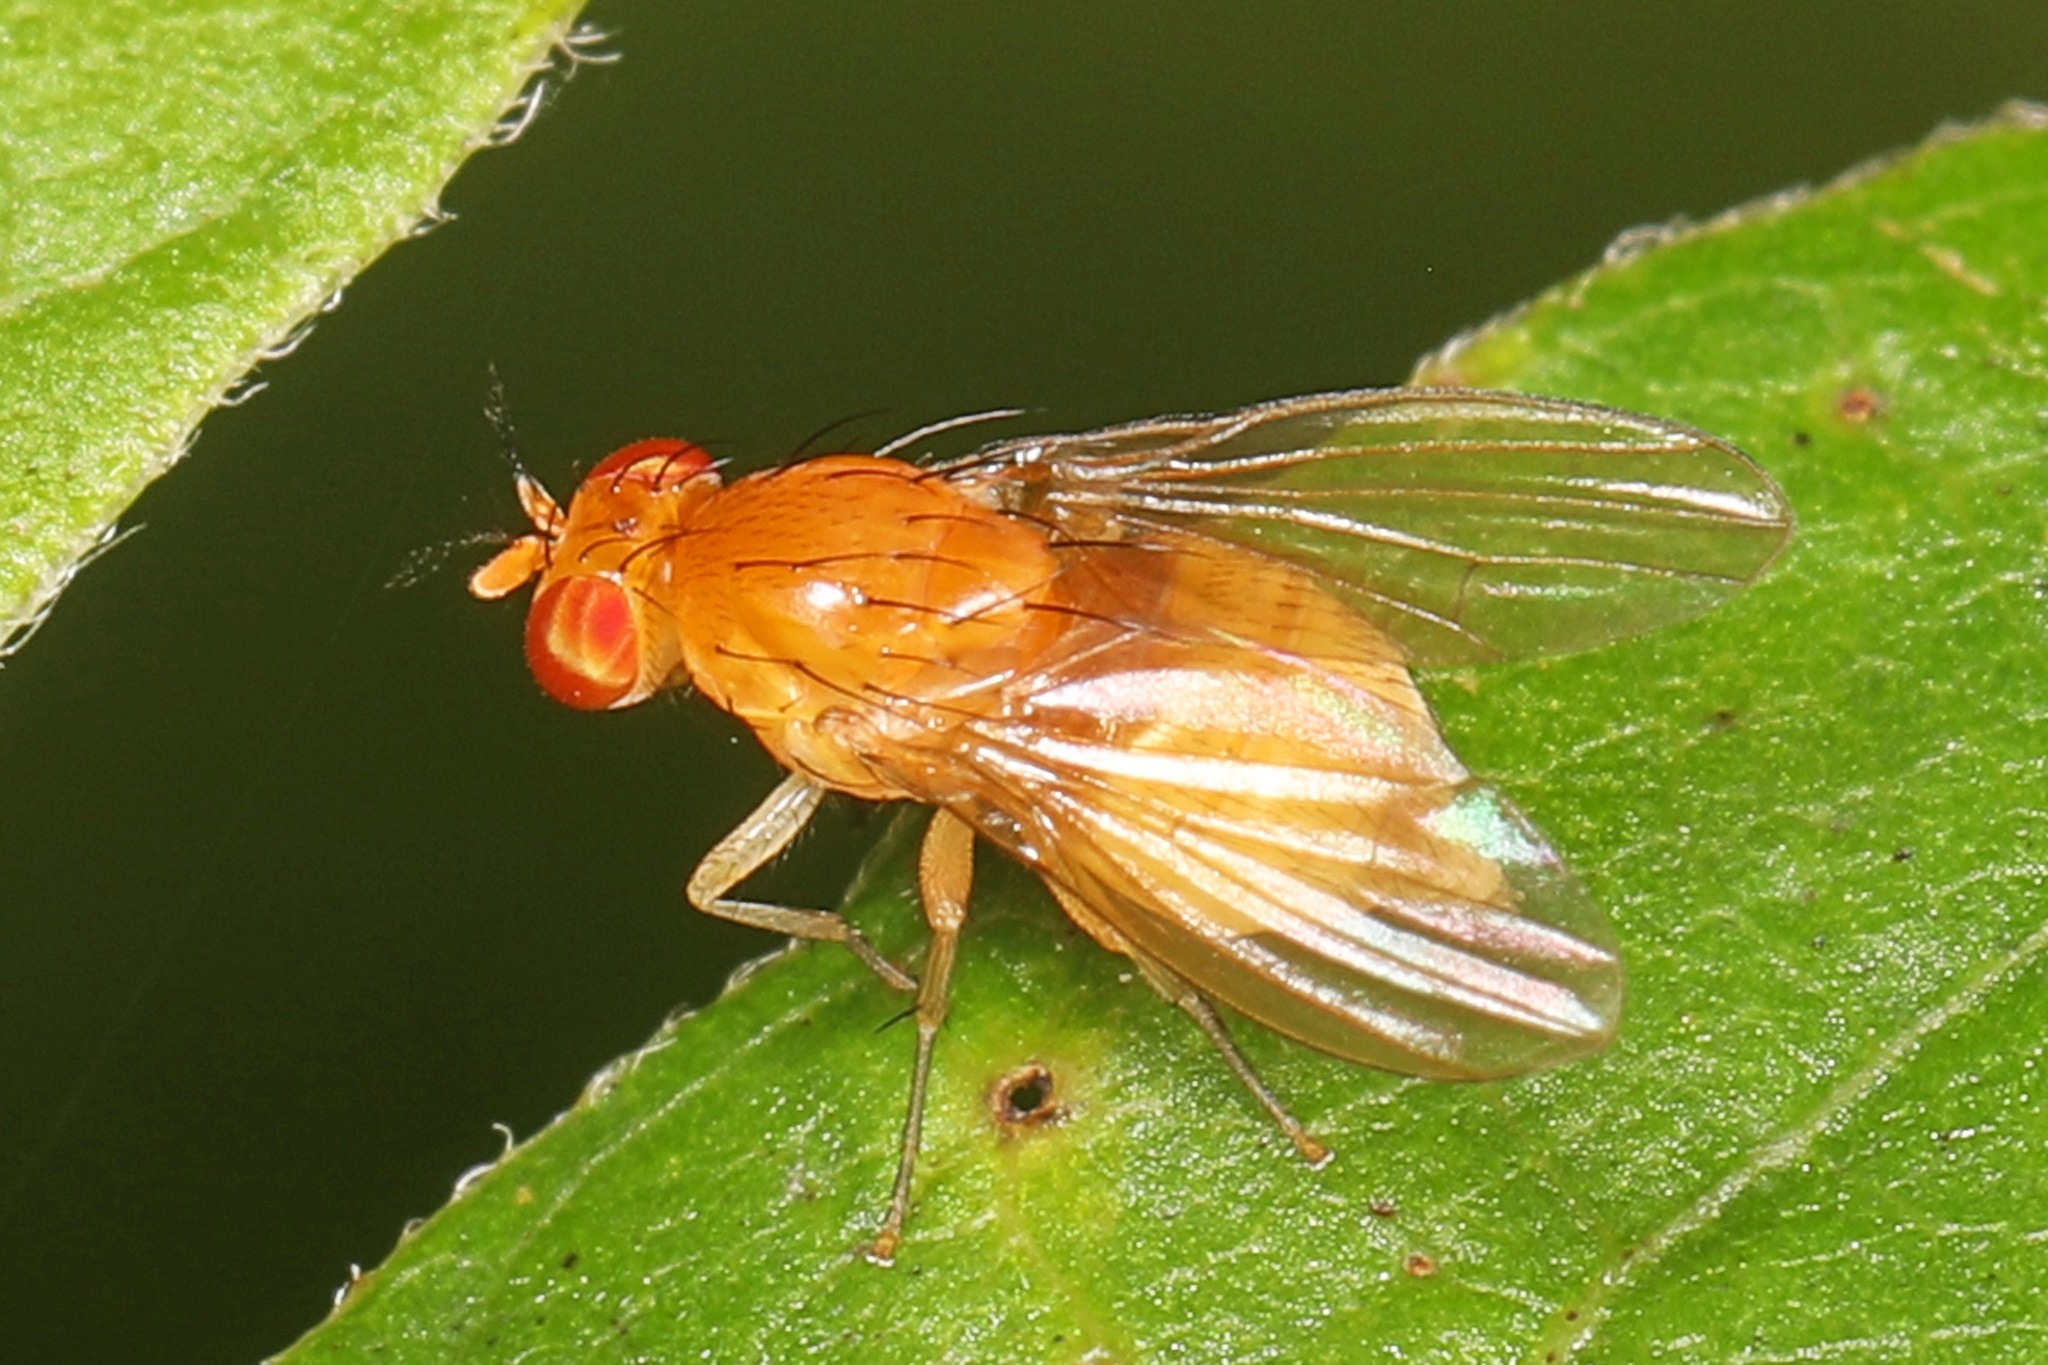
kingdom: Animalia
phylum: Arthropoda
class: Insecta
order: Diptera
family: Lauxaniidae
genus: Neogriphoneura
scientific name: Neogriphoneura sordida
